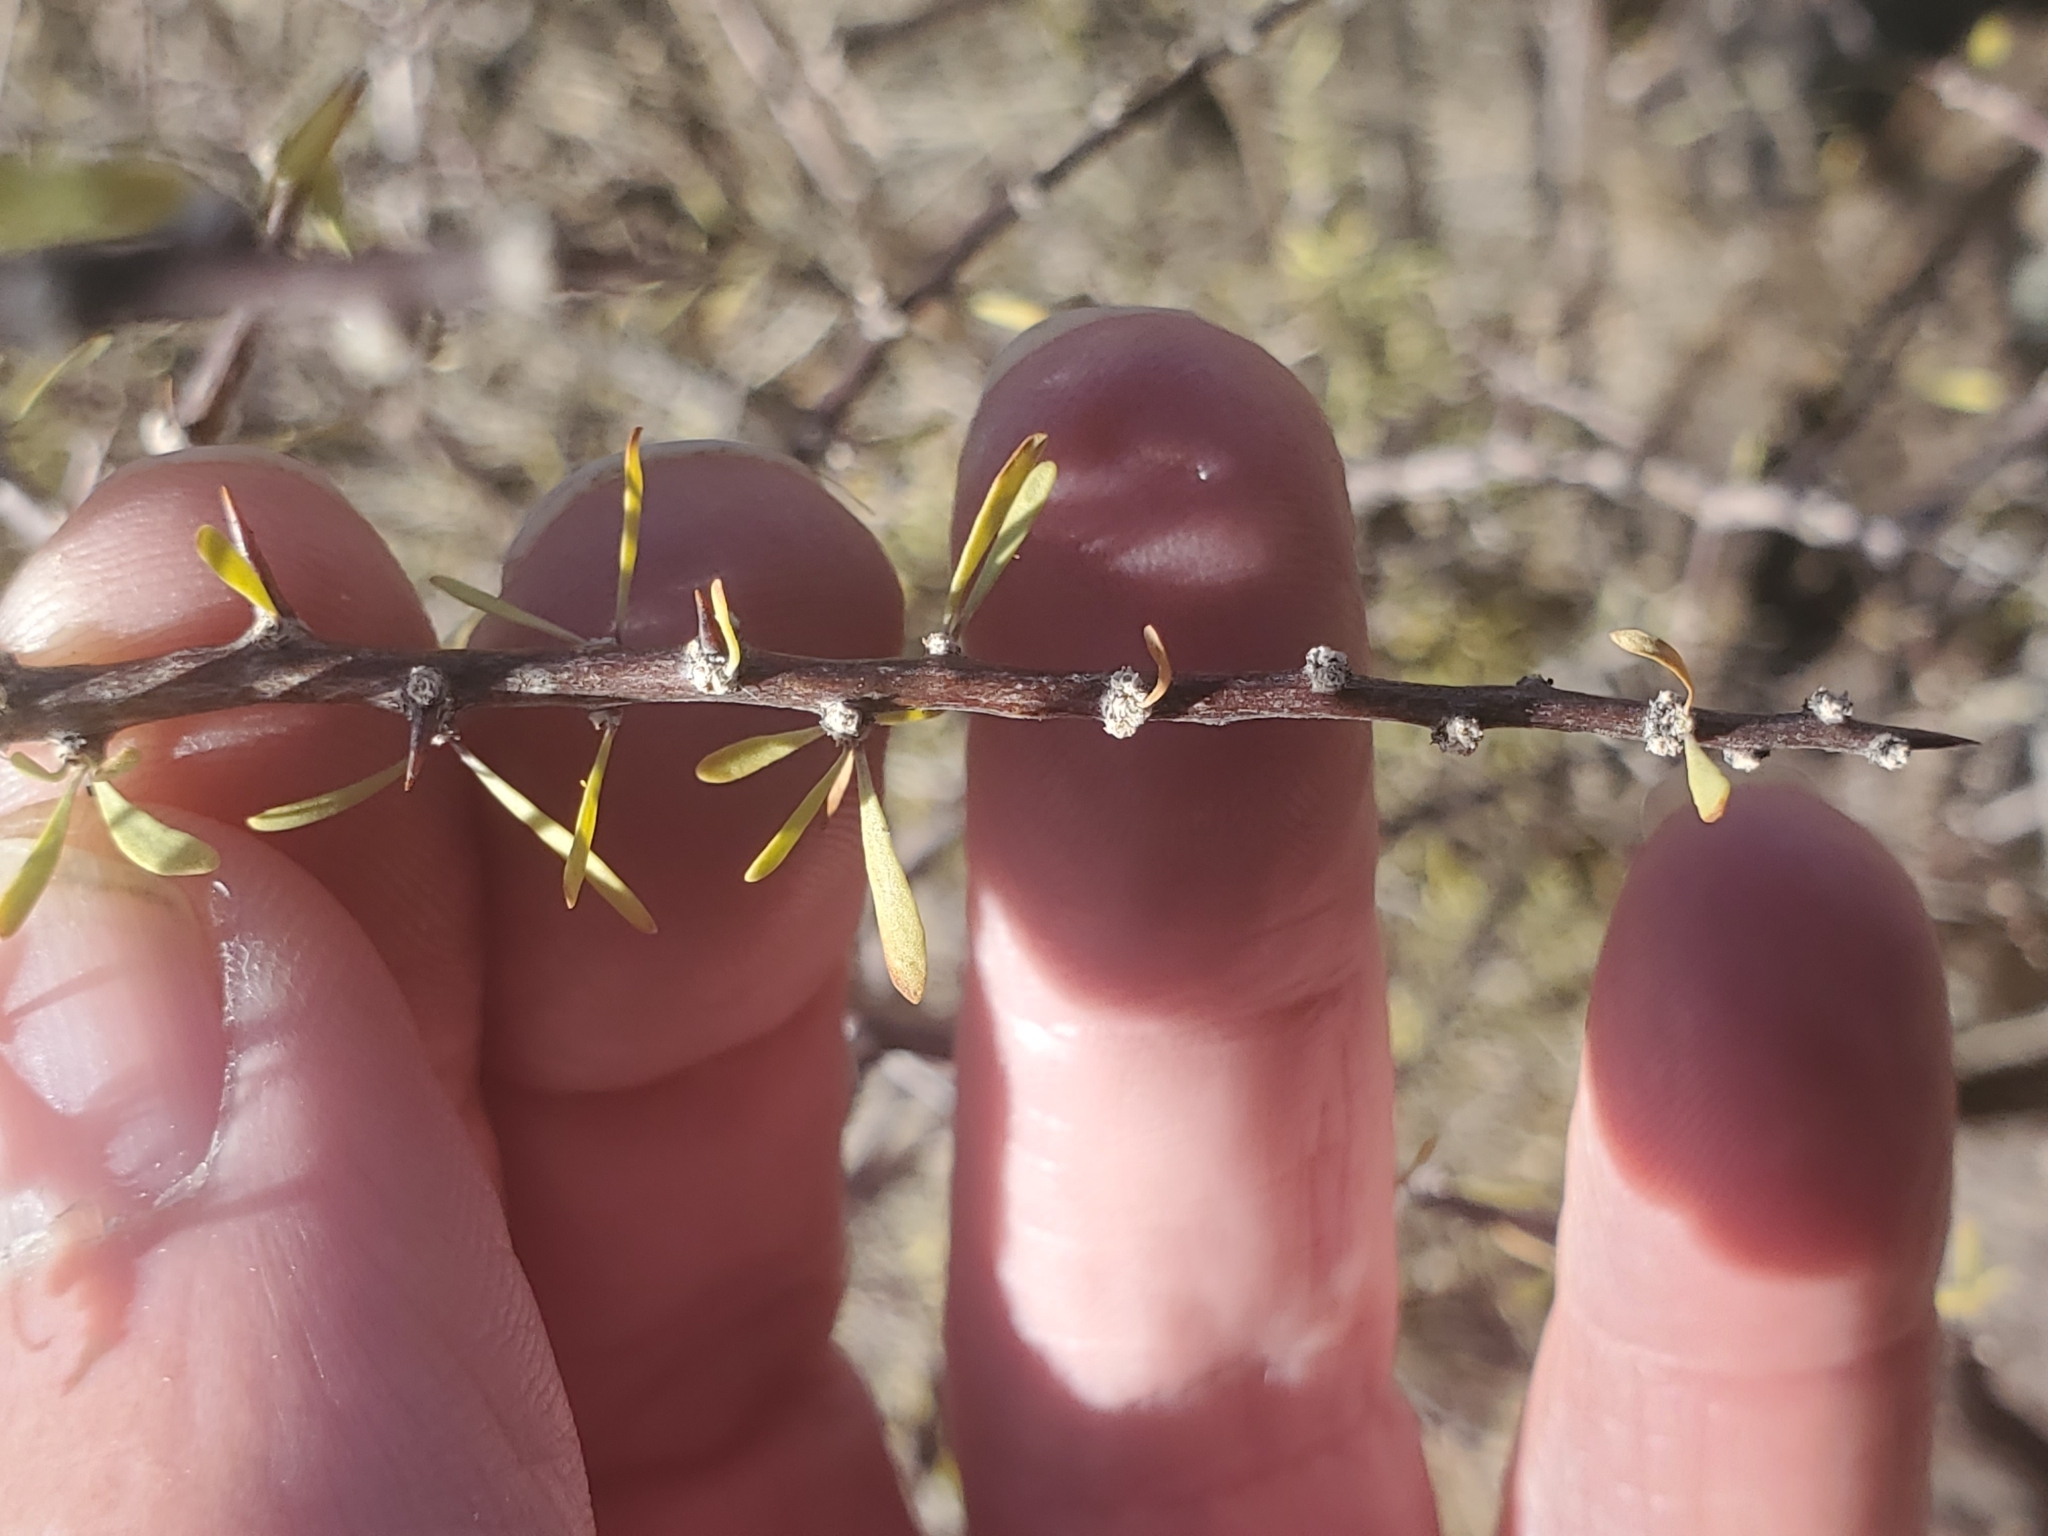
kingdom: Plantae
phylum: Tracheophyta
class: Magnoliopsida
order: Solanales
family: Solanaceae
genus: Lycium
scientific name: Lycium berlandieri
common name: Berlandier wolfberry
